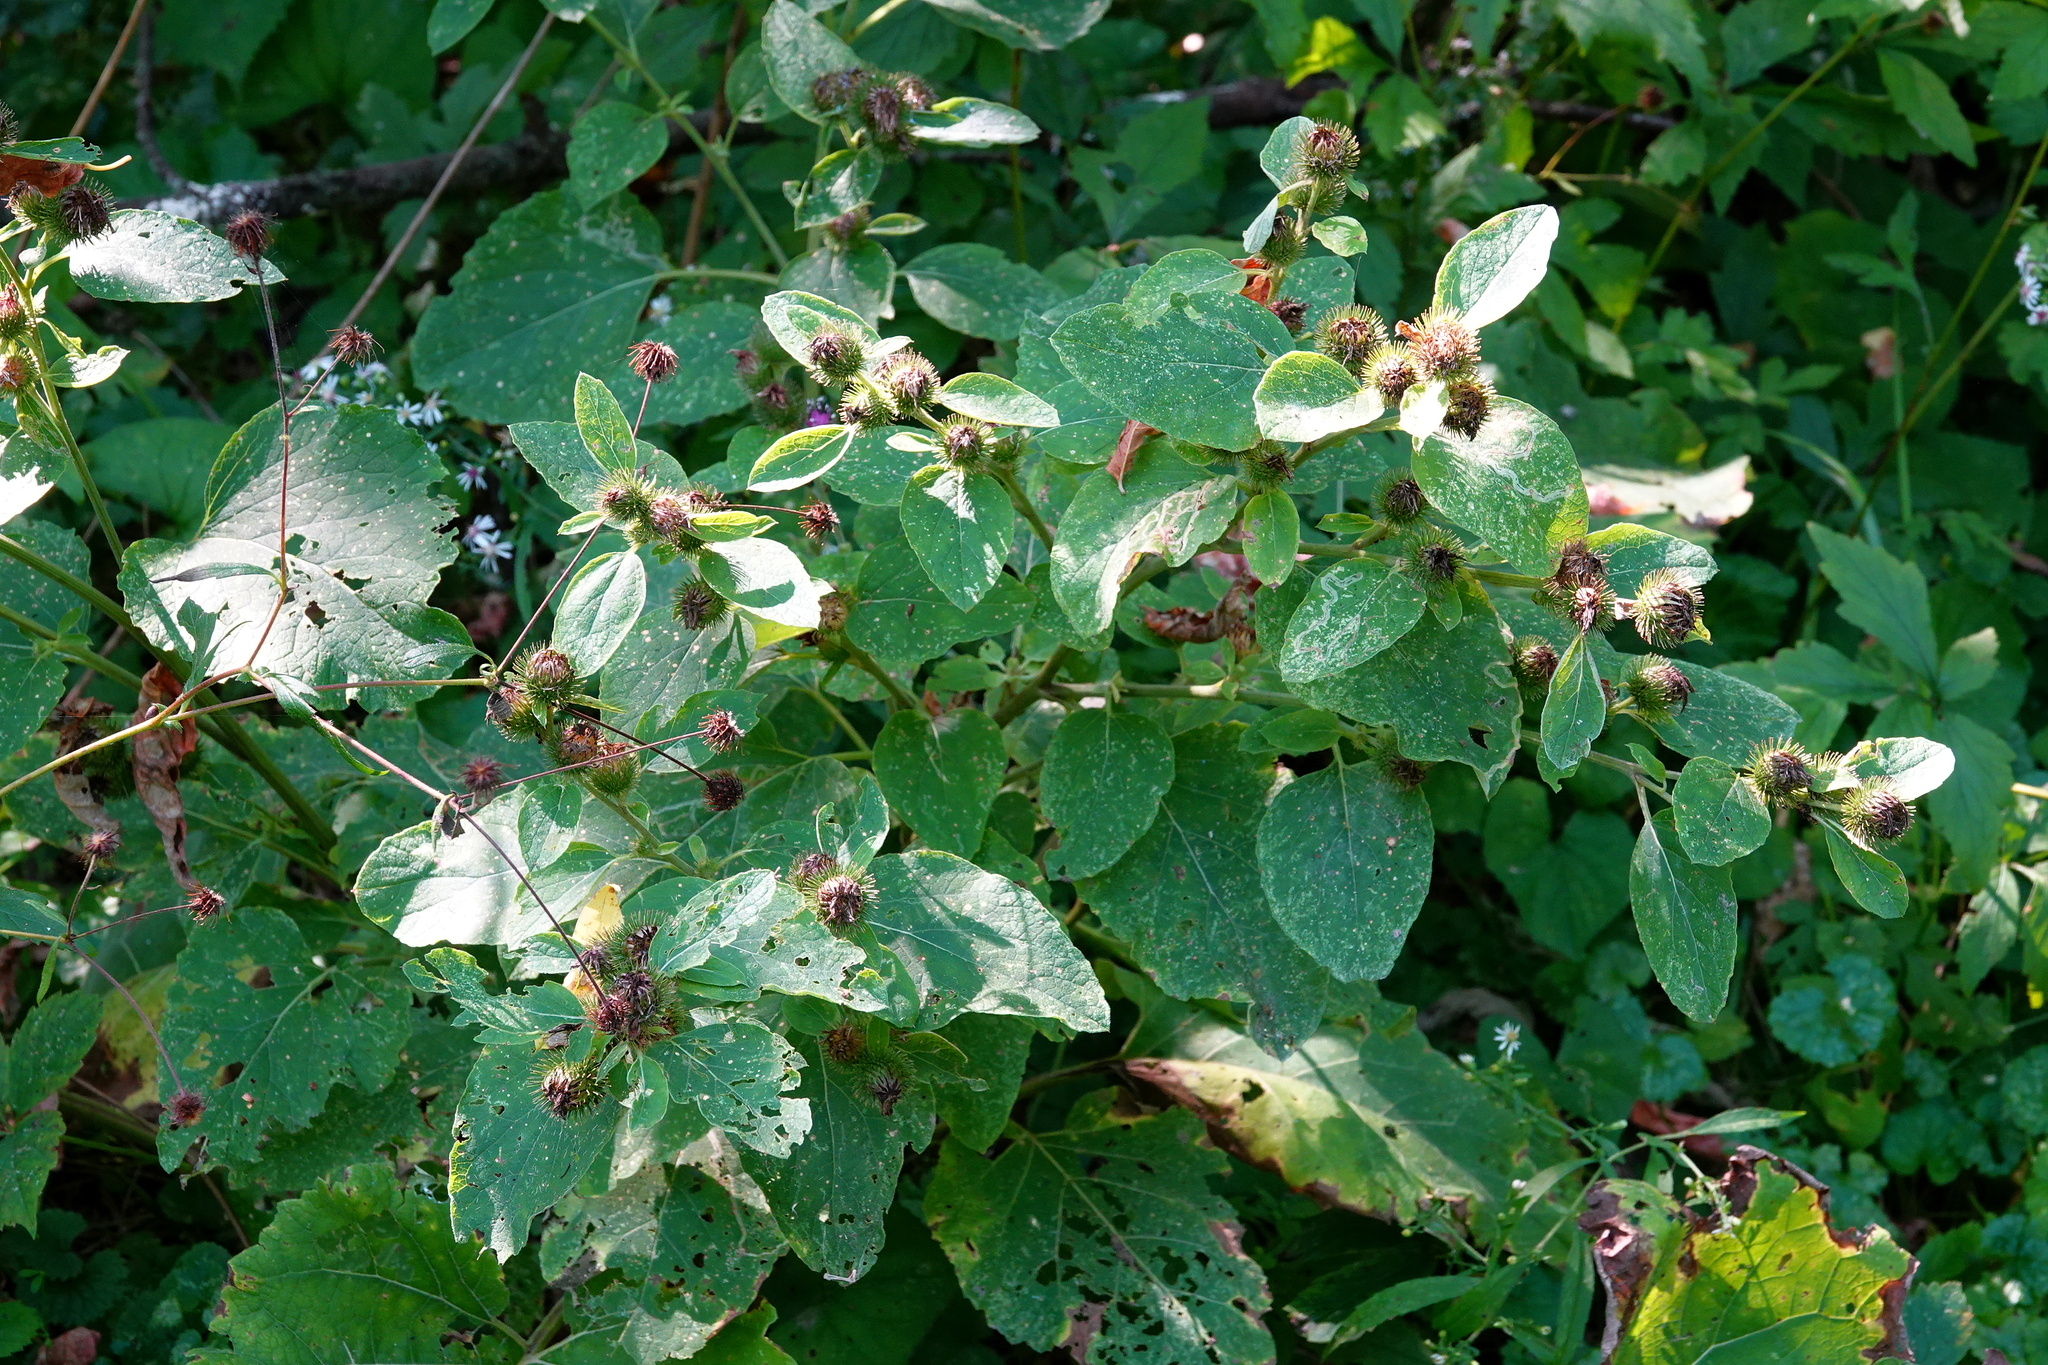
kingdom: Plantae
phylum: Tracheophyta
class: Magnoliopsida
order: Asterales
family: Asteraceae
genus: Arctium
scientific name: Arctium minus
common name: Lesser burdock
